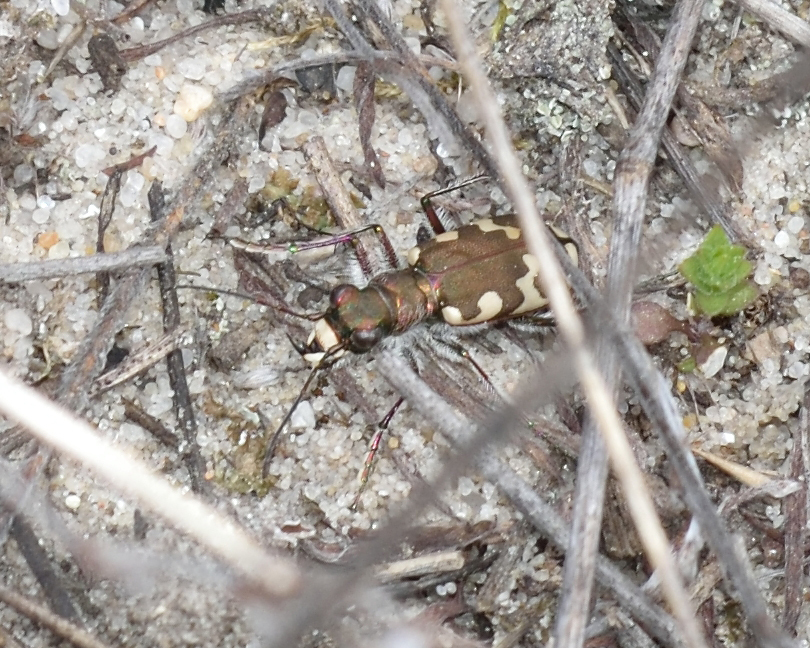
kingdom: Animalia
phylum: Arthropoda
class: Insecta
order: Coleoptera
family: Carabidae
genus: Cicindela
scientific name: Cicindela hybrida
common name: Northern dune tiger beetle
